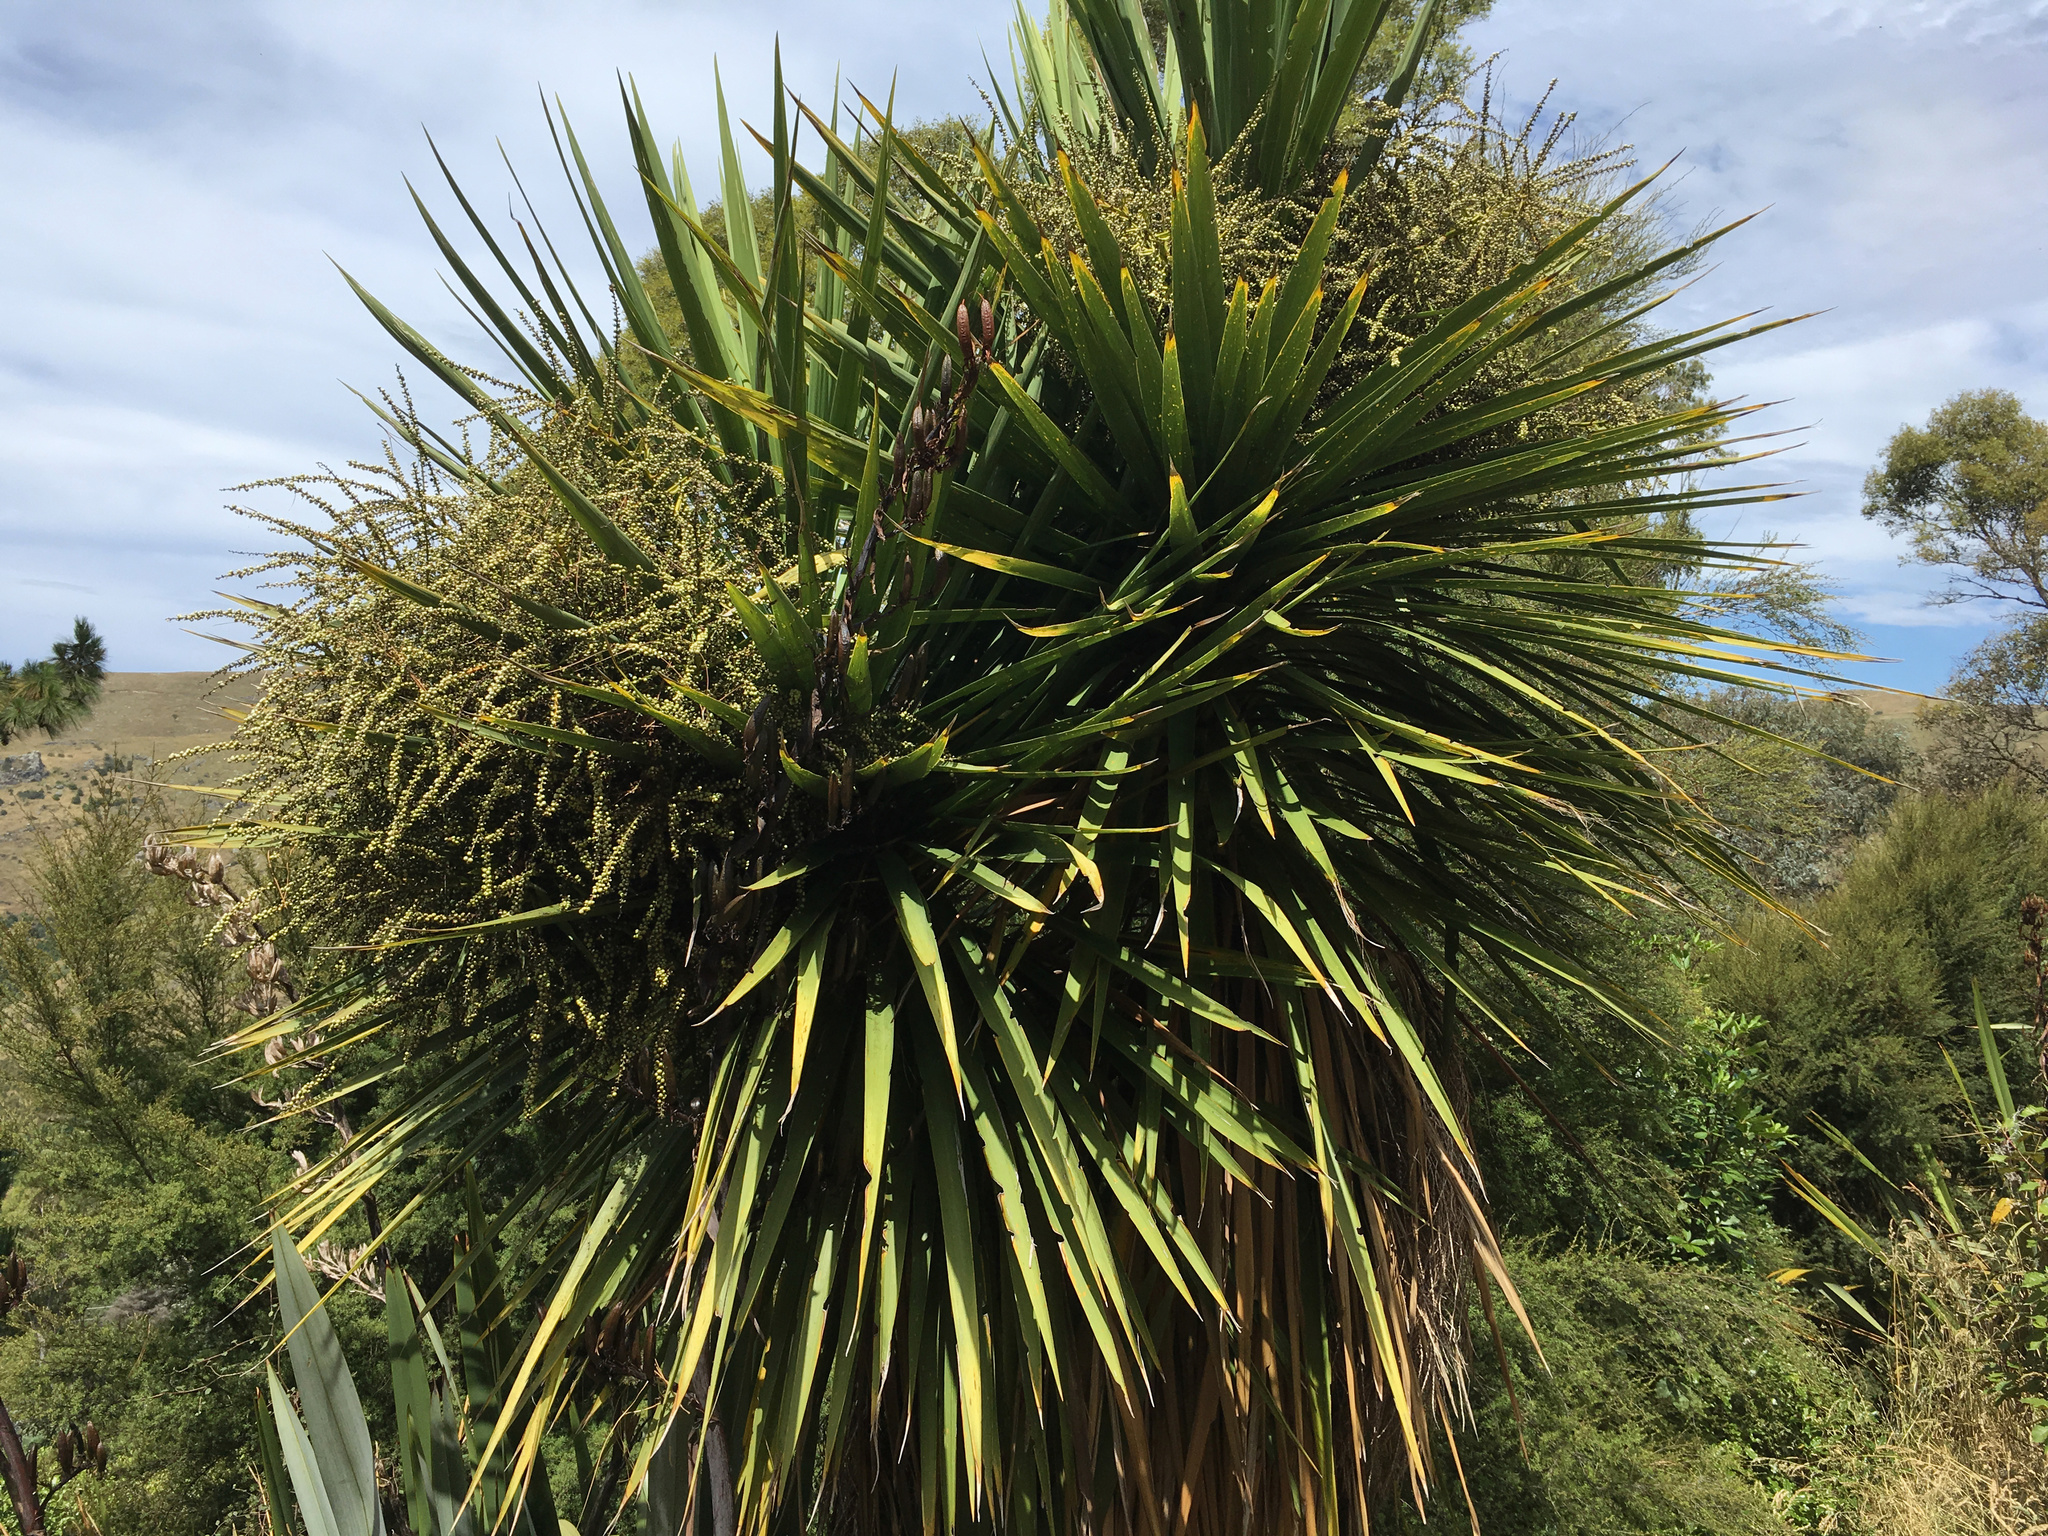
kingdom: Plantae
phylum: Tracheophyta
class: Liliopsida
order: Asparagales
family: Asparagaceae
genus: Cordyline
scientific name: Cordyline australis
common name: Cabbage-palm
